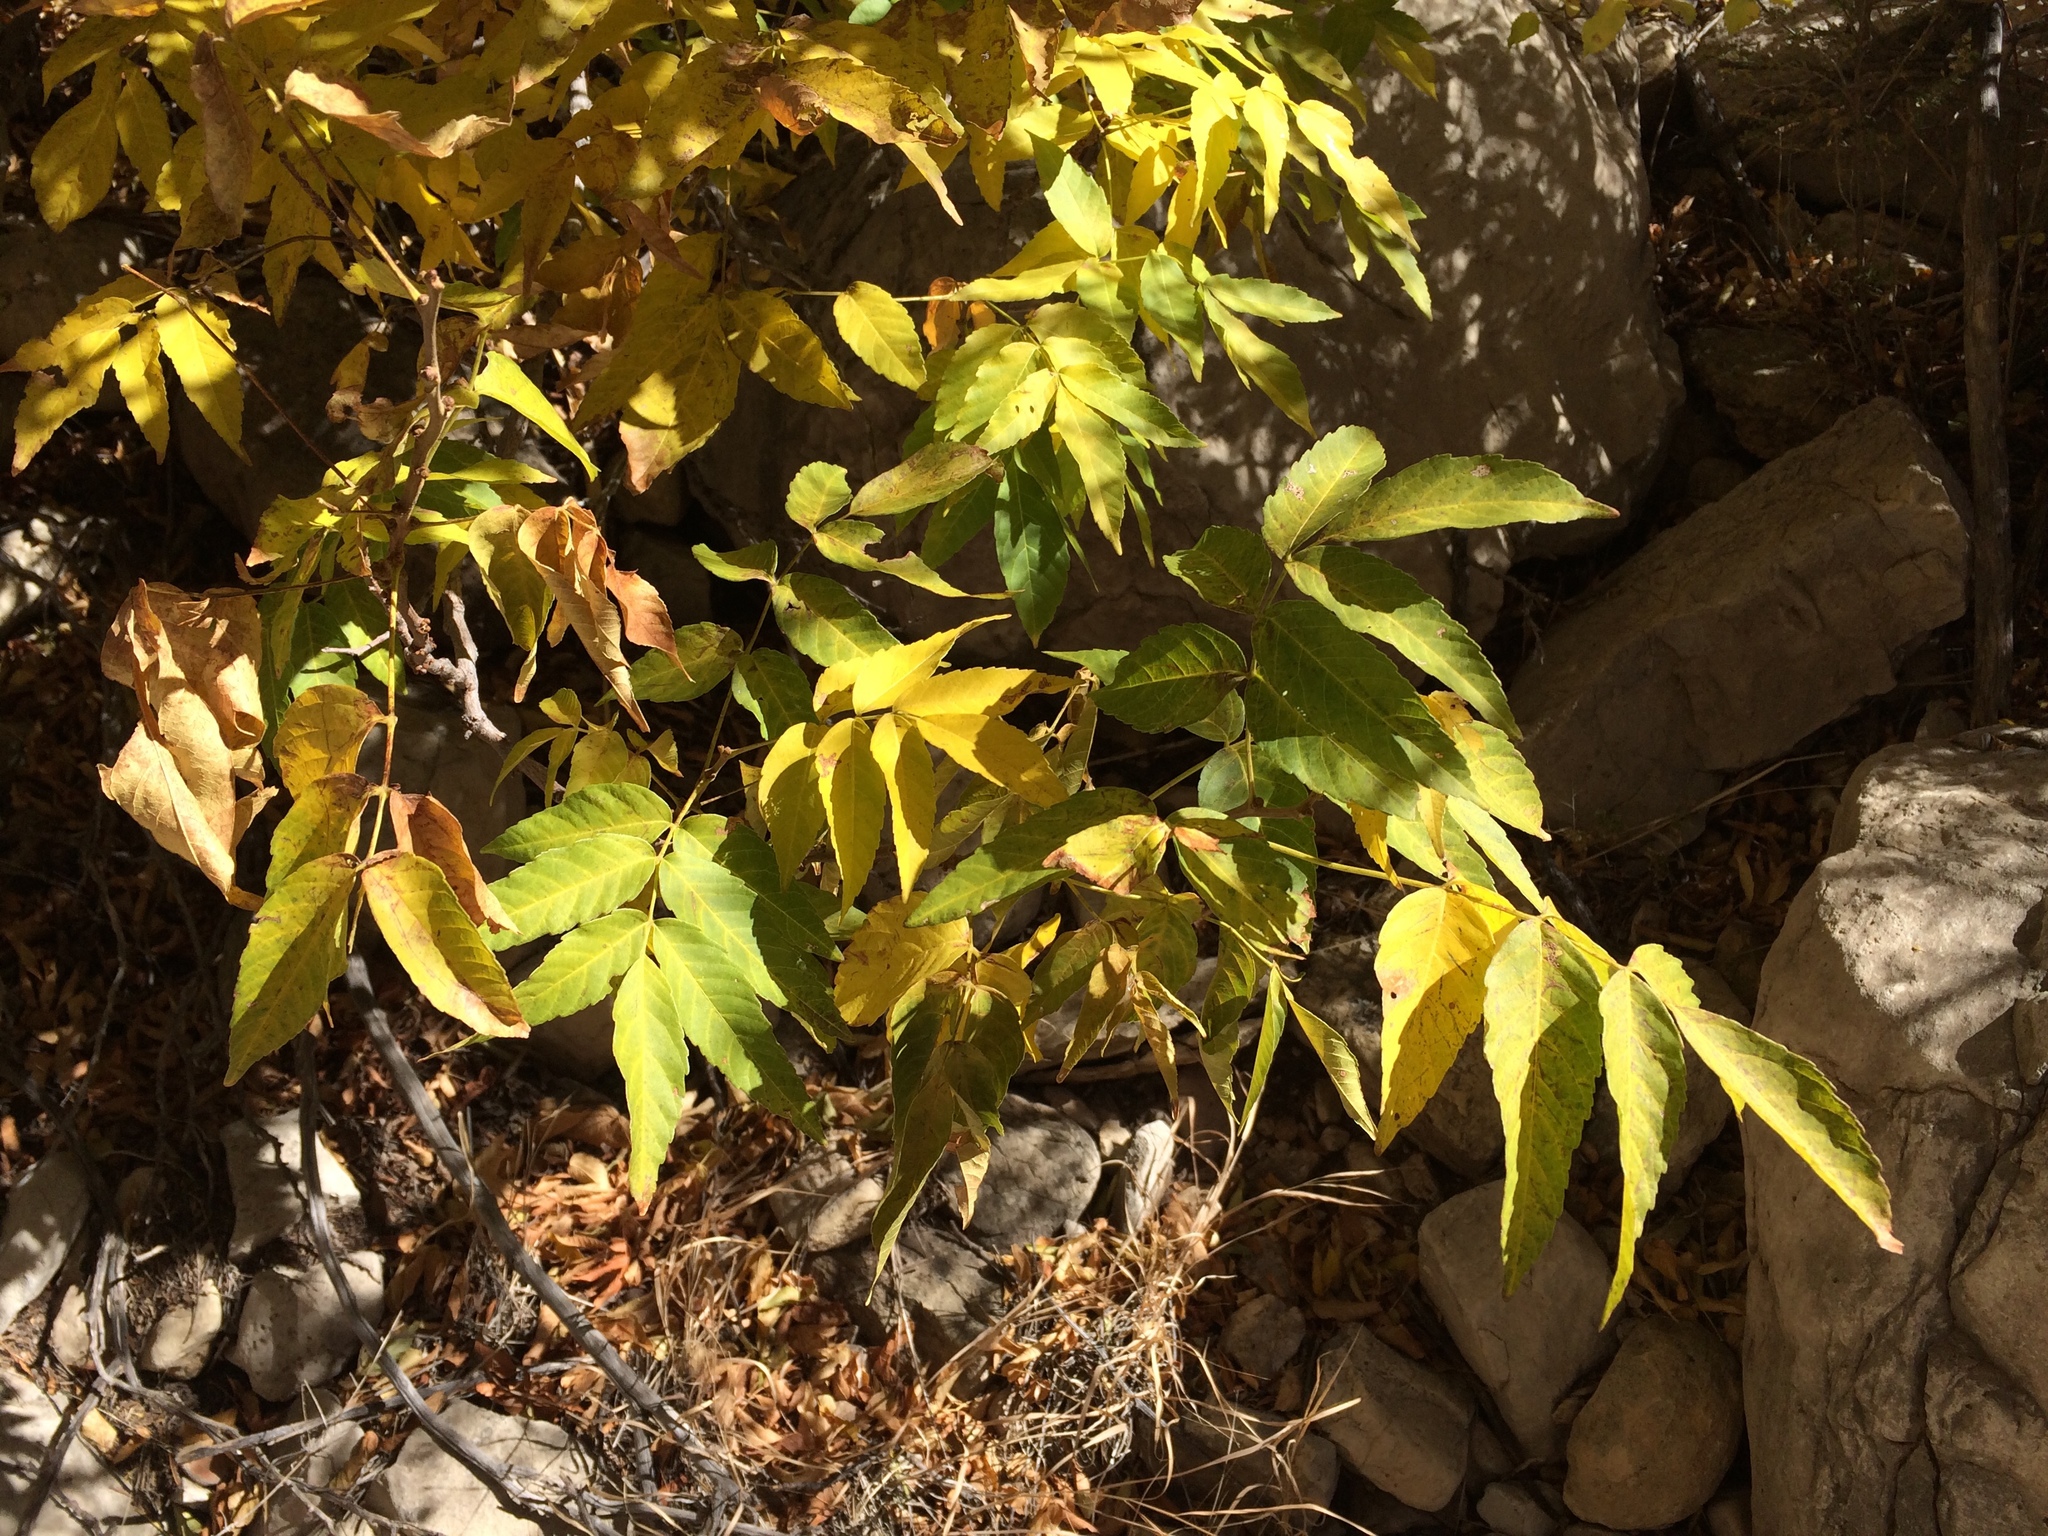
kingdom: Plantae
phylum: Tracheophyta
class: Magnoliopsida
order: Sapindales
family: Sapindaceae
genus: Ungnadia
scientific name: Ungnadia speciosa
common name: Texas-buckeye
